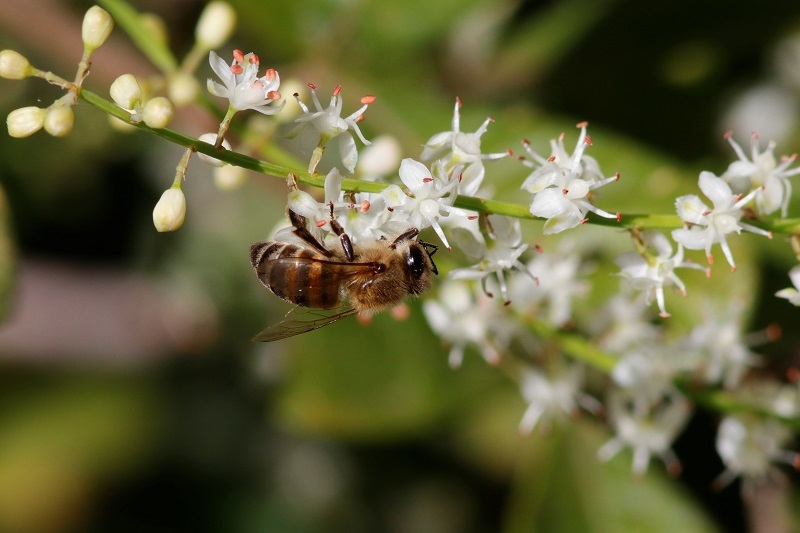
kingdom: Animalia
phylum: Arthropoda
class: Insecta
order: Hymenoptera
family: Apidae
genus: Apis
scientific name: Apis mellifera
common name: Honey bee
